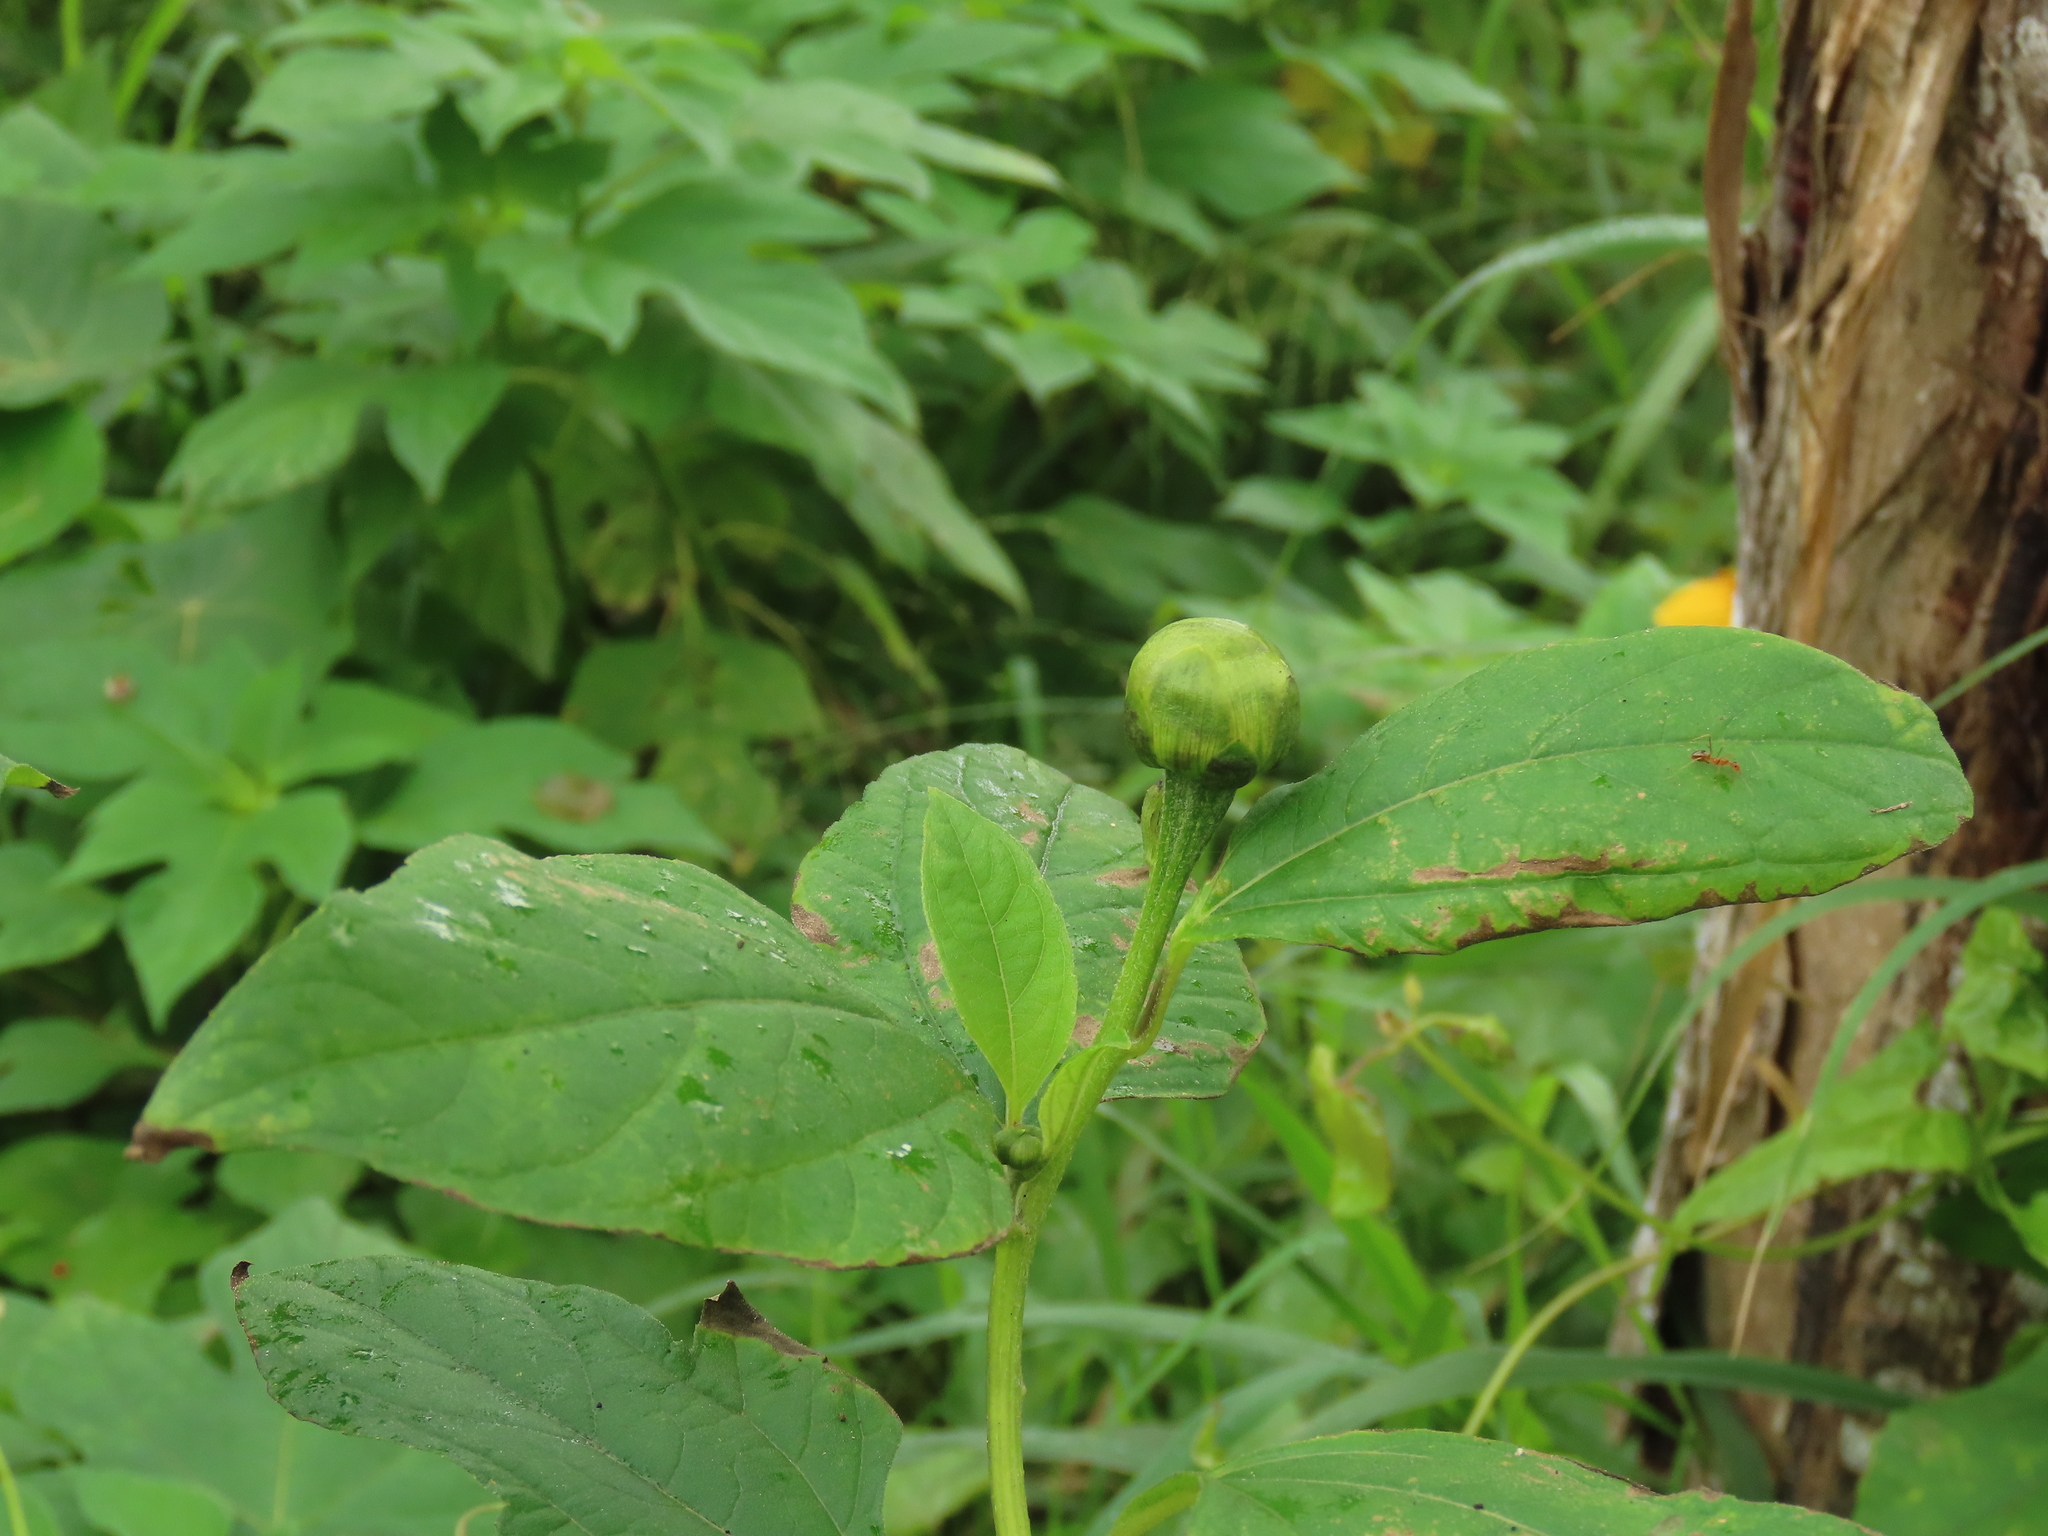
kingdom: Plantae
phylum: Tracheophyta
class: Magnoliopsida
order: Asterales
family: Asteraceae
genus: Tithonia
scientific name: Tithonia diversifolia
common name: Tree marigold
